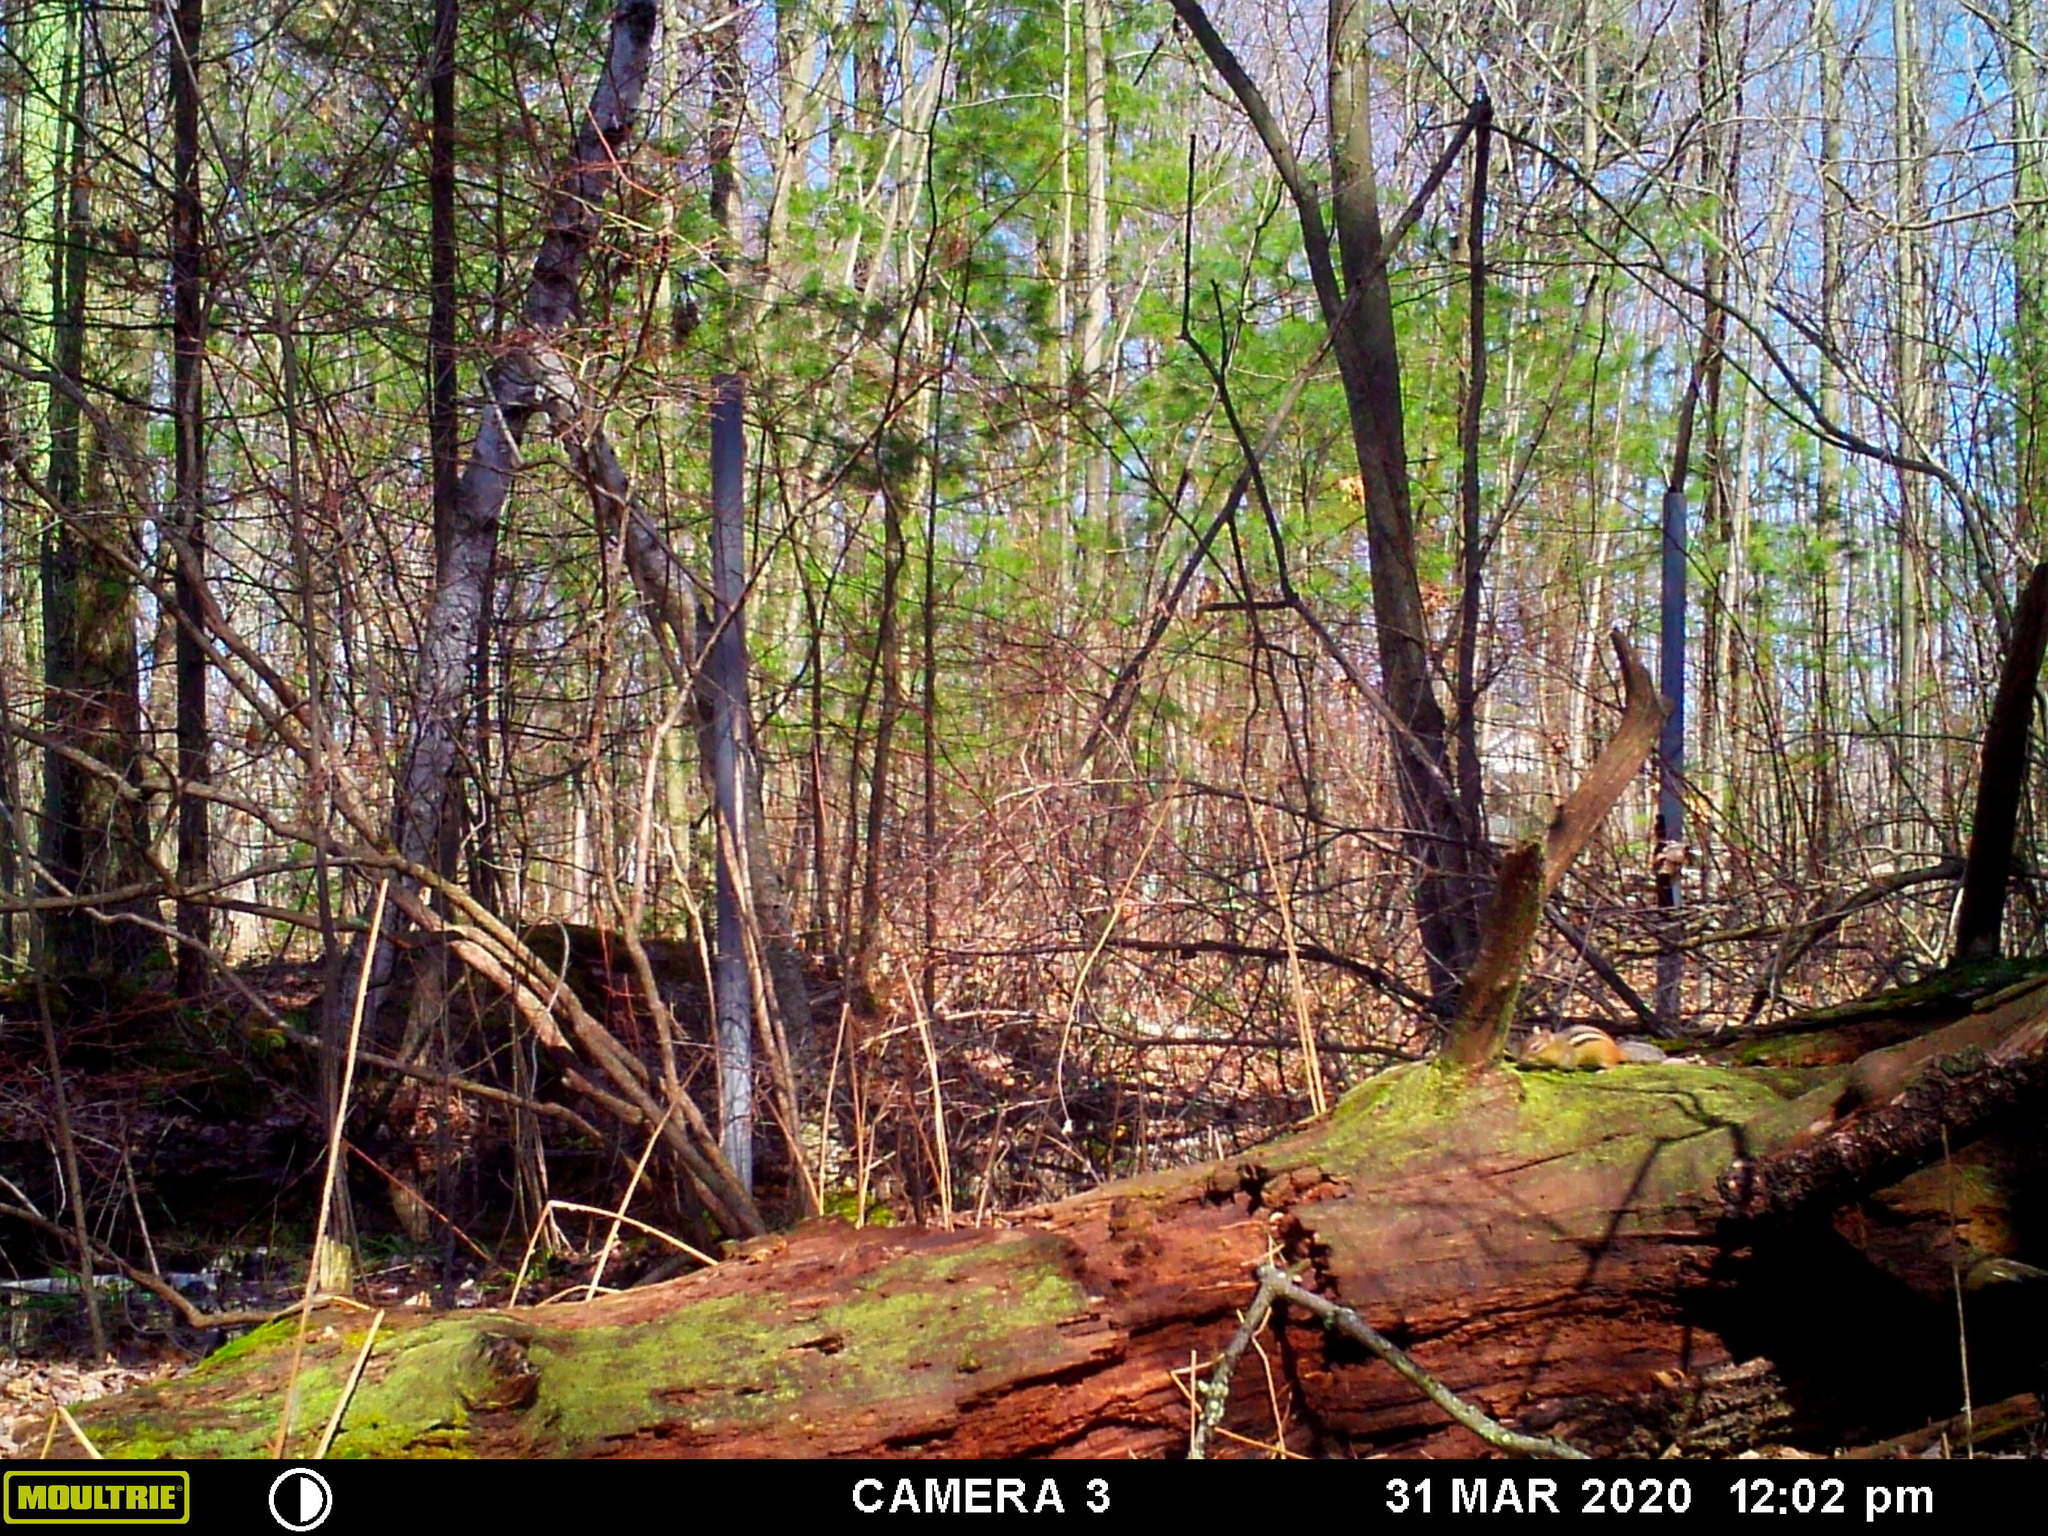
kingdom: Animalia
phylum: Chordata
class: Mammalia
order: Rodentia
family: Sciuridae
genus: Tamias
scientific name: Tamias striatus
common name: Eastern chipmunk
